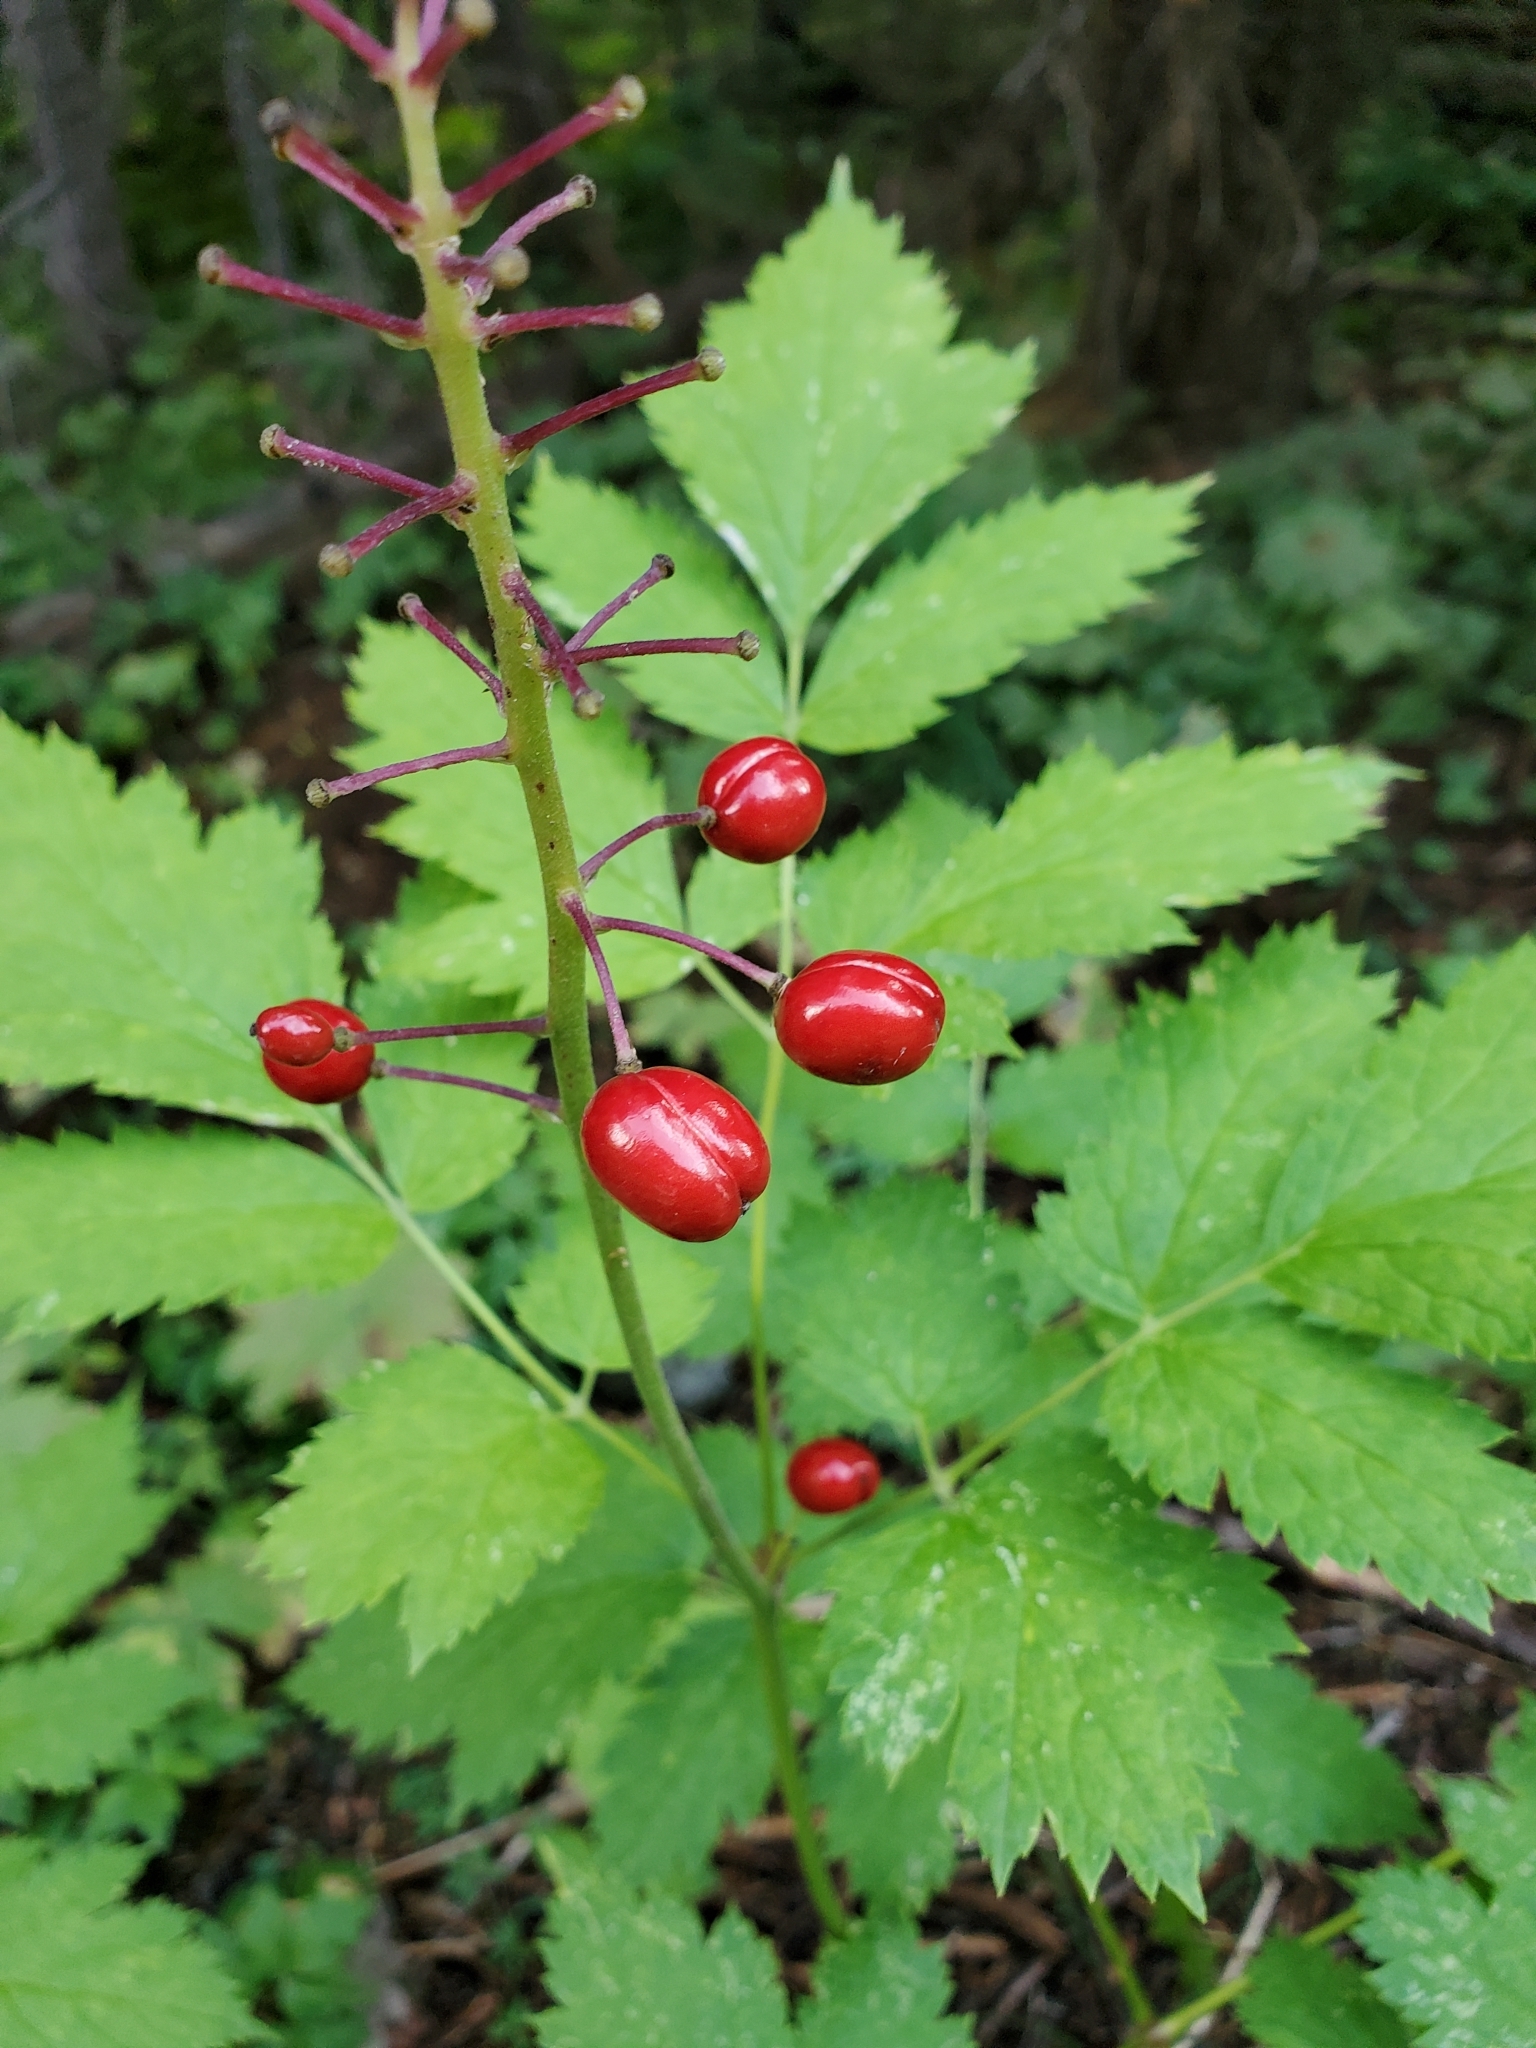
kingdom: Plantae
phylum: Tracheophyta
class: Magnoliopsida
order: Ranunculales
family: Ranunculaceae
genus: Actaea
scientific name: Actaea rubra
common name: Red baneberry
